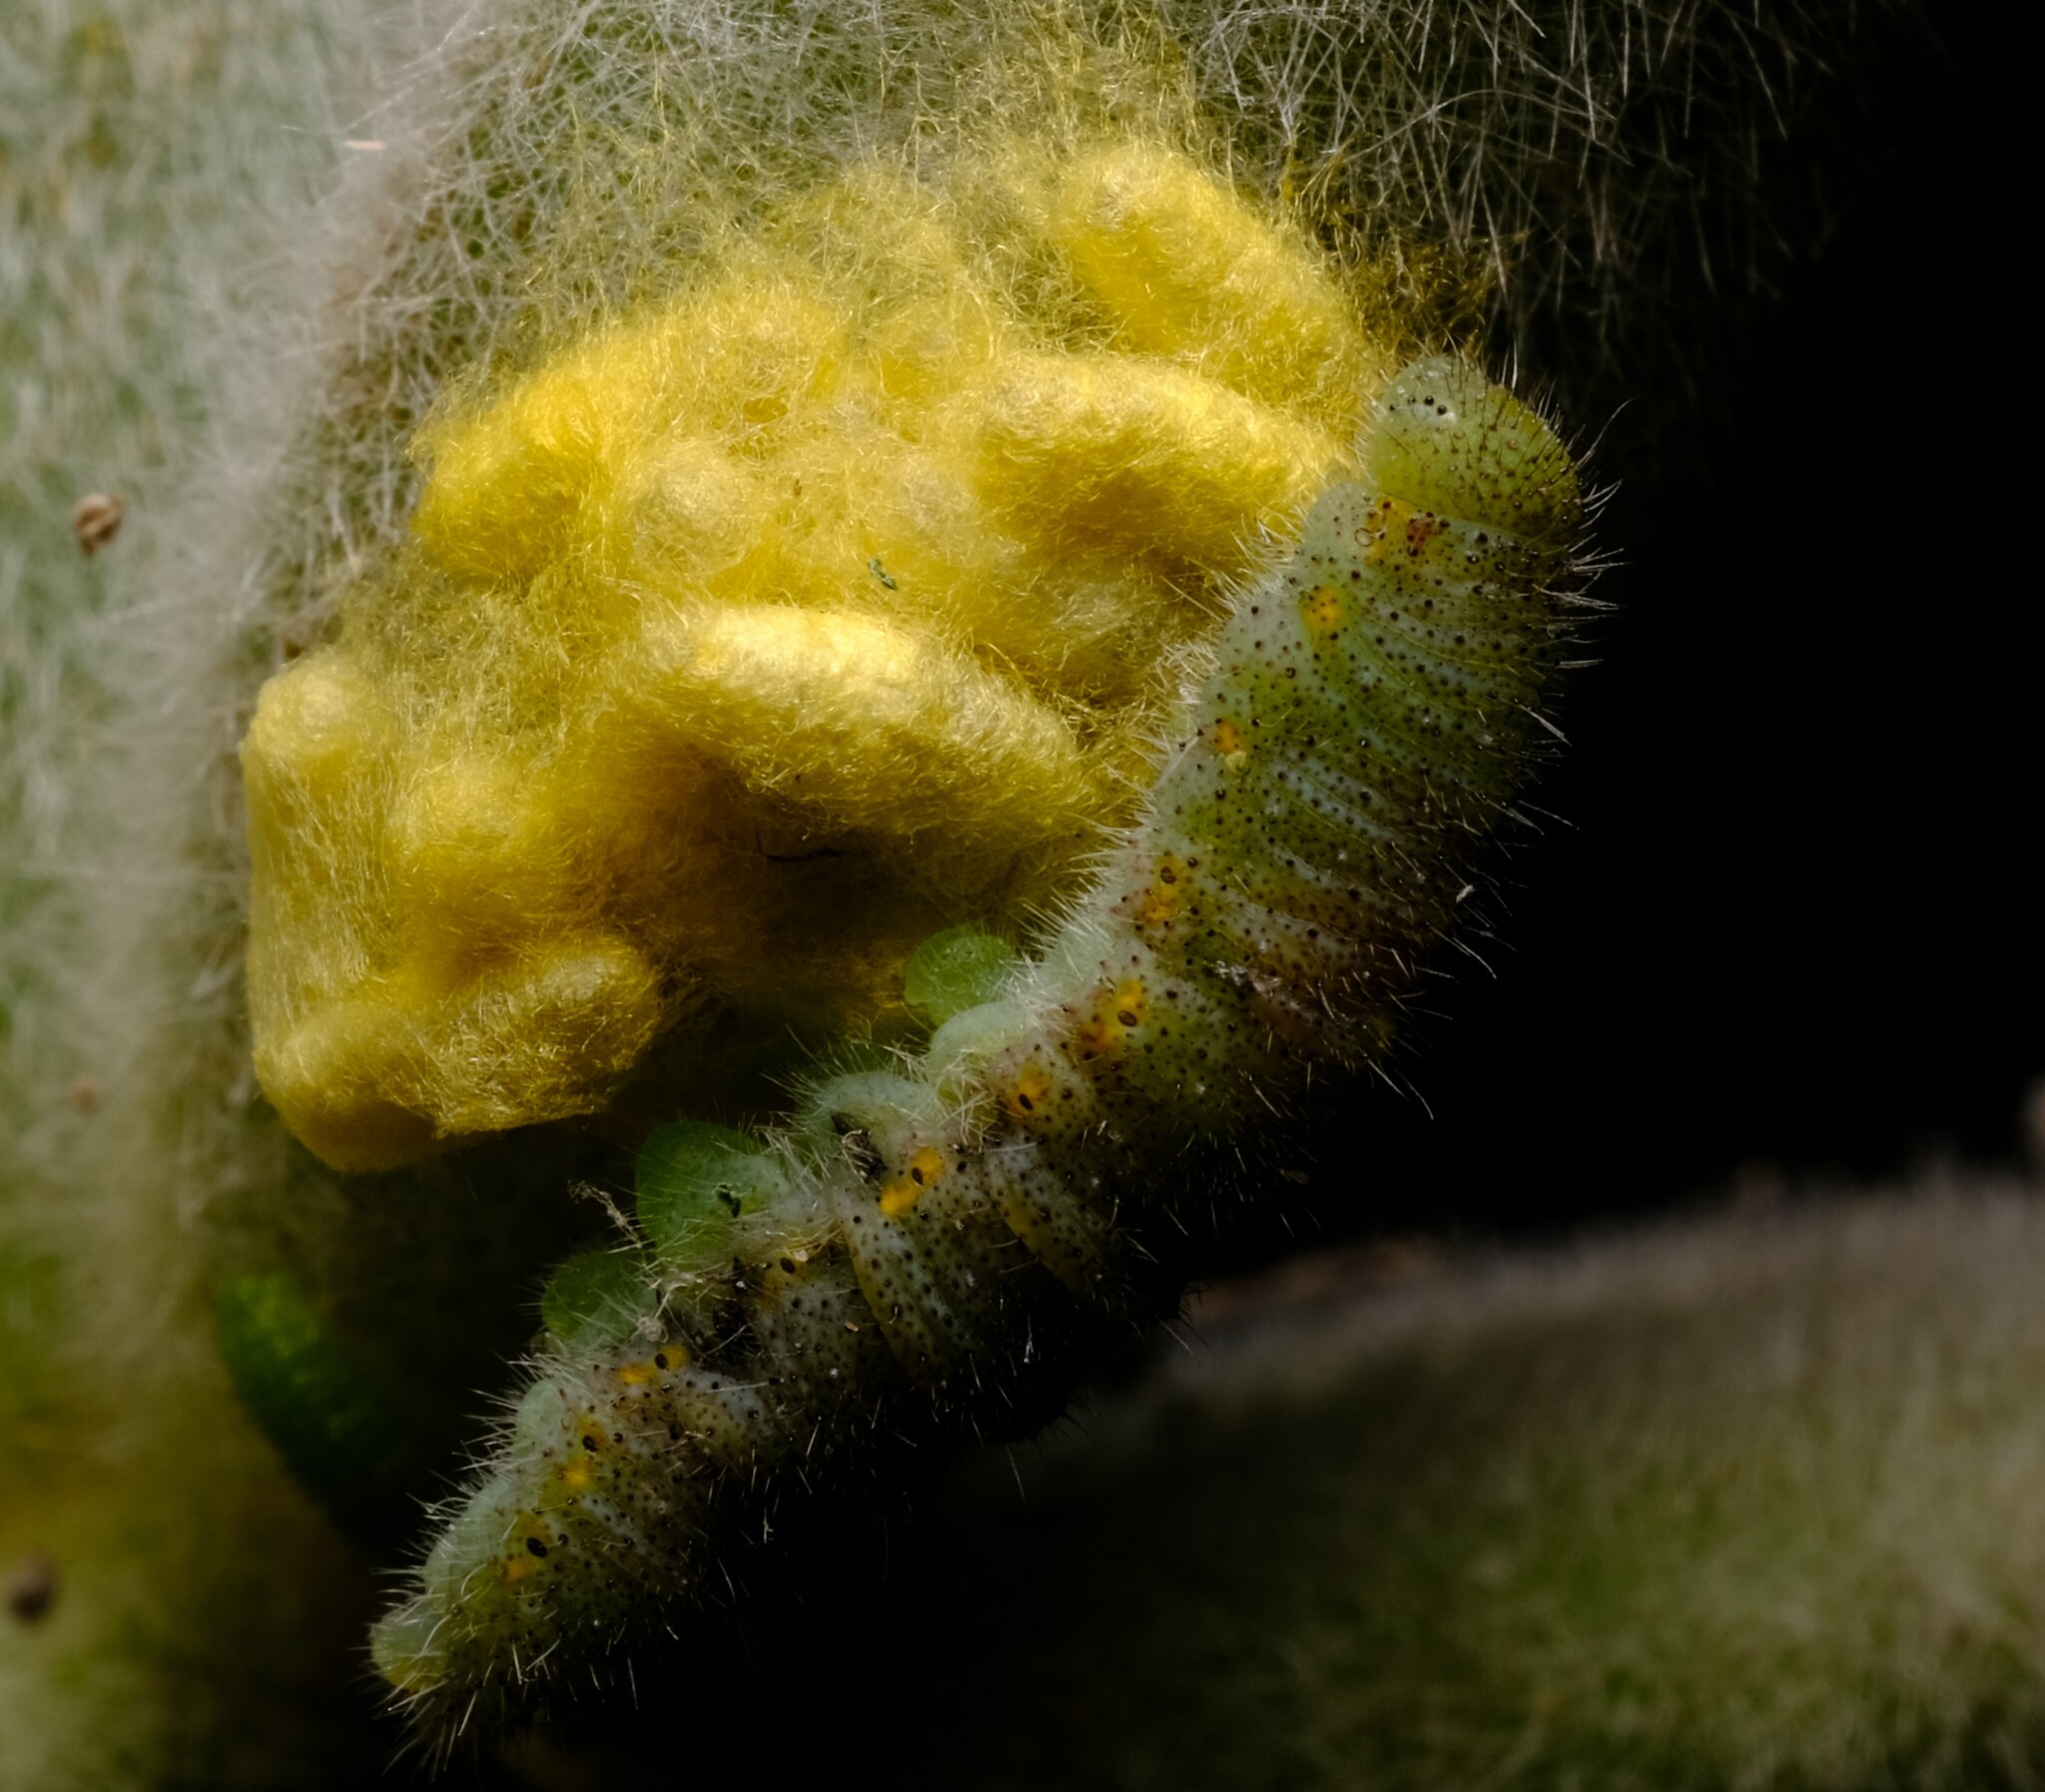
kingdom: Animalia
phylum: Arthropoda
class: Insecta
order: Lepidoptera
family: Pieridae
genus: Pieris
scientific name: Pieris rapae
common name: Small white
